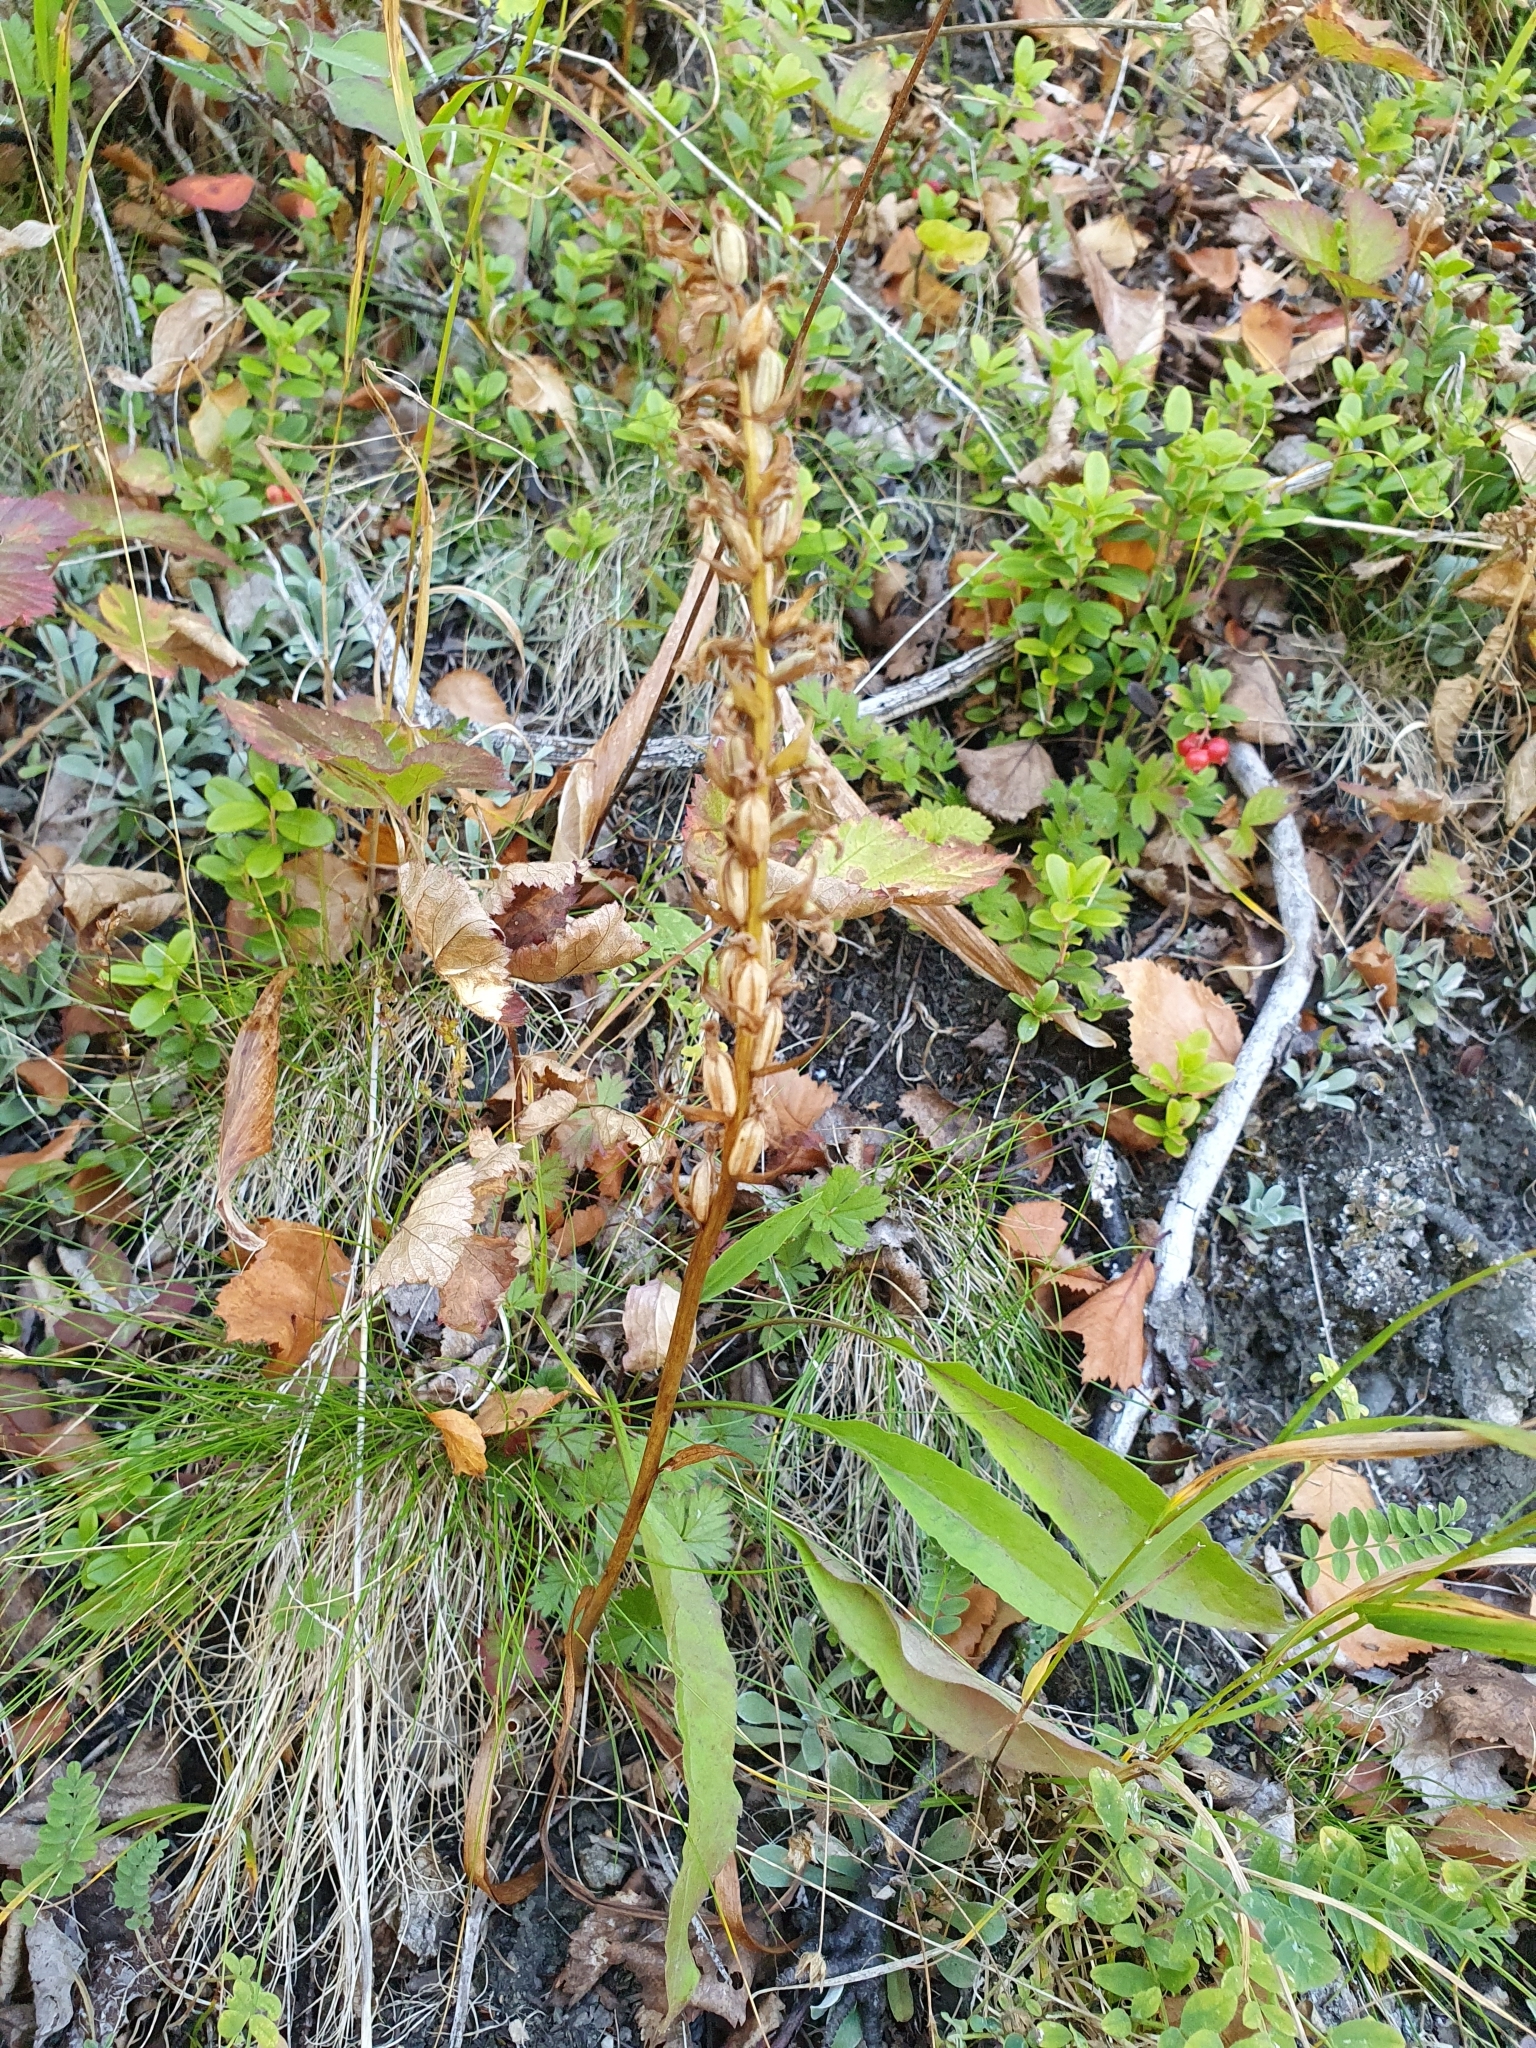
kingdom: Plantae
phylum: Tracheophyta
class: Liliopsida
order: Asparagales
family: Orchidaceae
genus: Gymnadenia
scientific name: Gymnadenia conopsea
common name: Fragrant orchid
